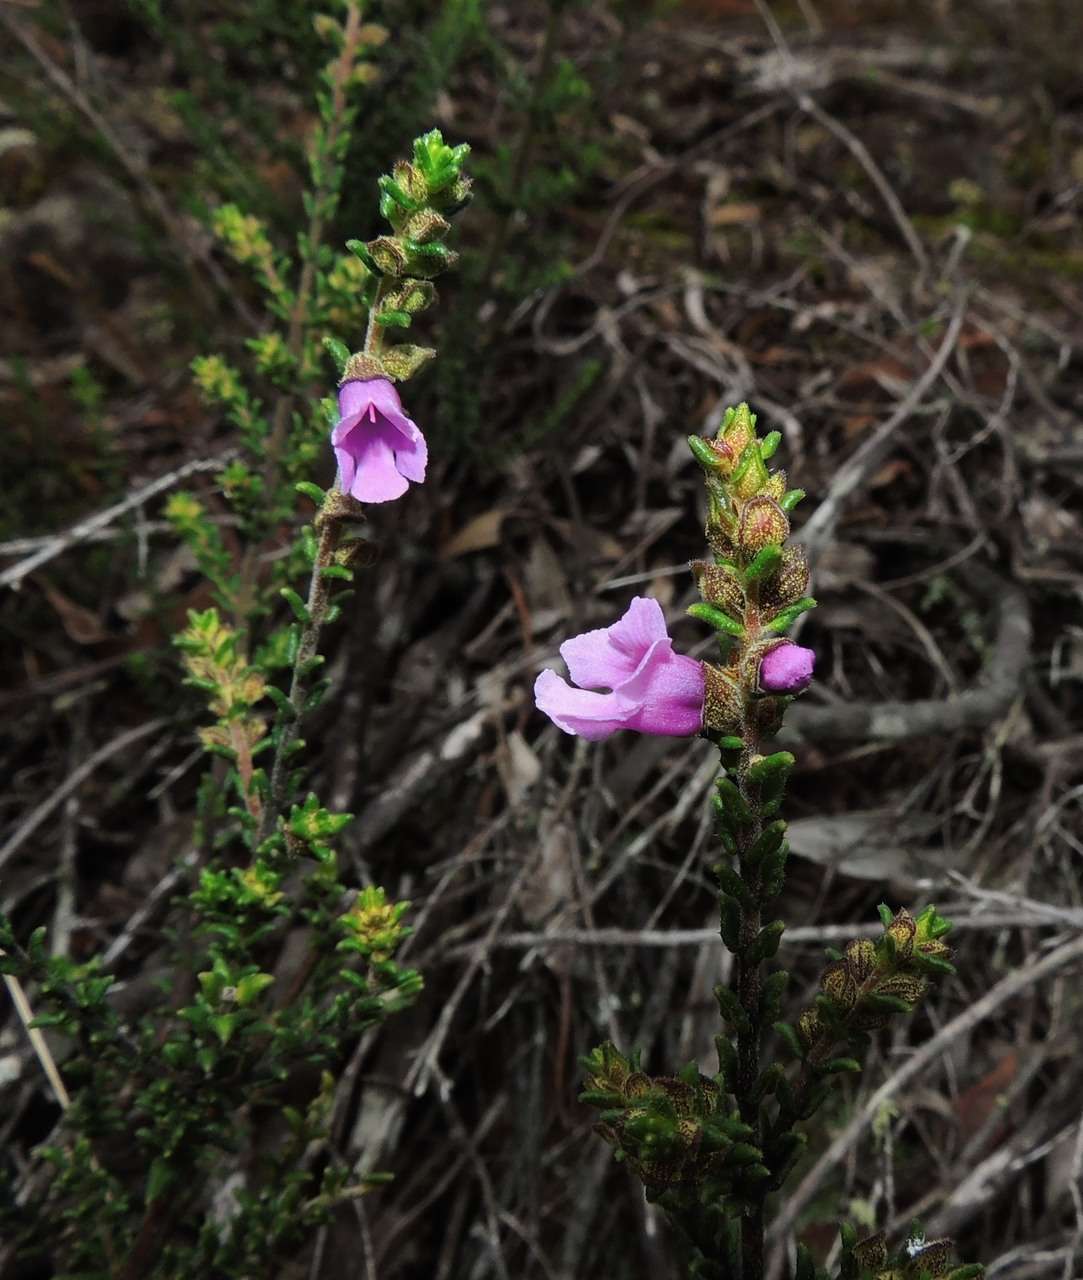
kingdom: Plantae
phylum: Tracheophyta
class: Magnoliopsida
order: Lamiales
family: Lamiaceae
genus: Prostanthera
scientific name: Prostanthera decussata
